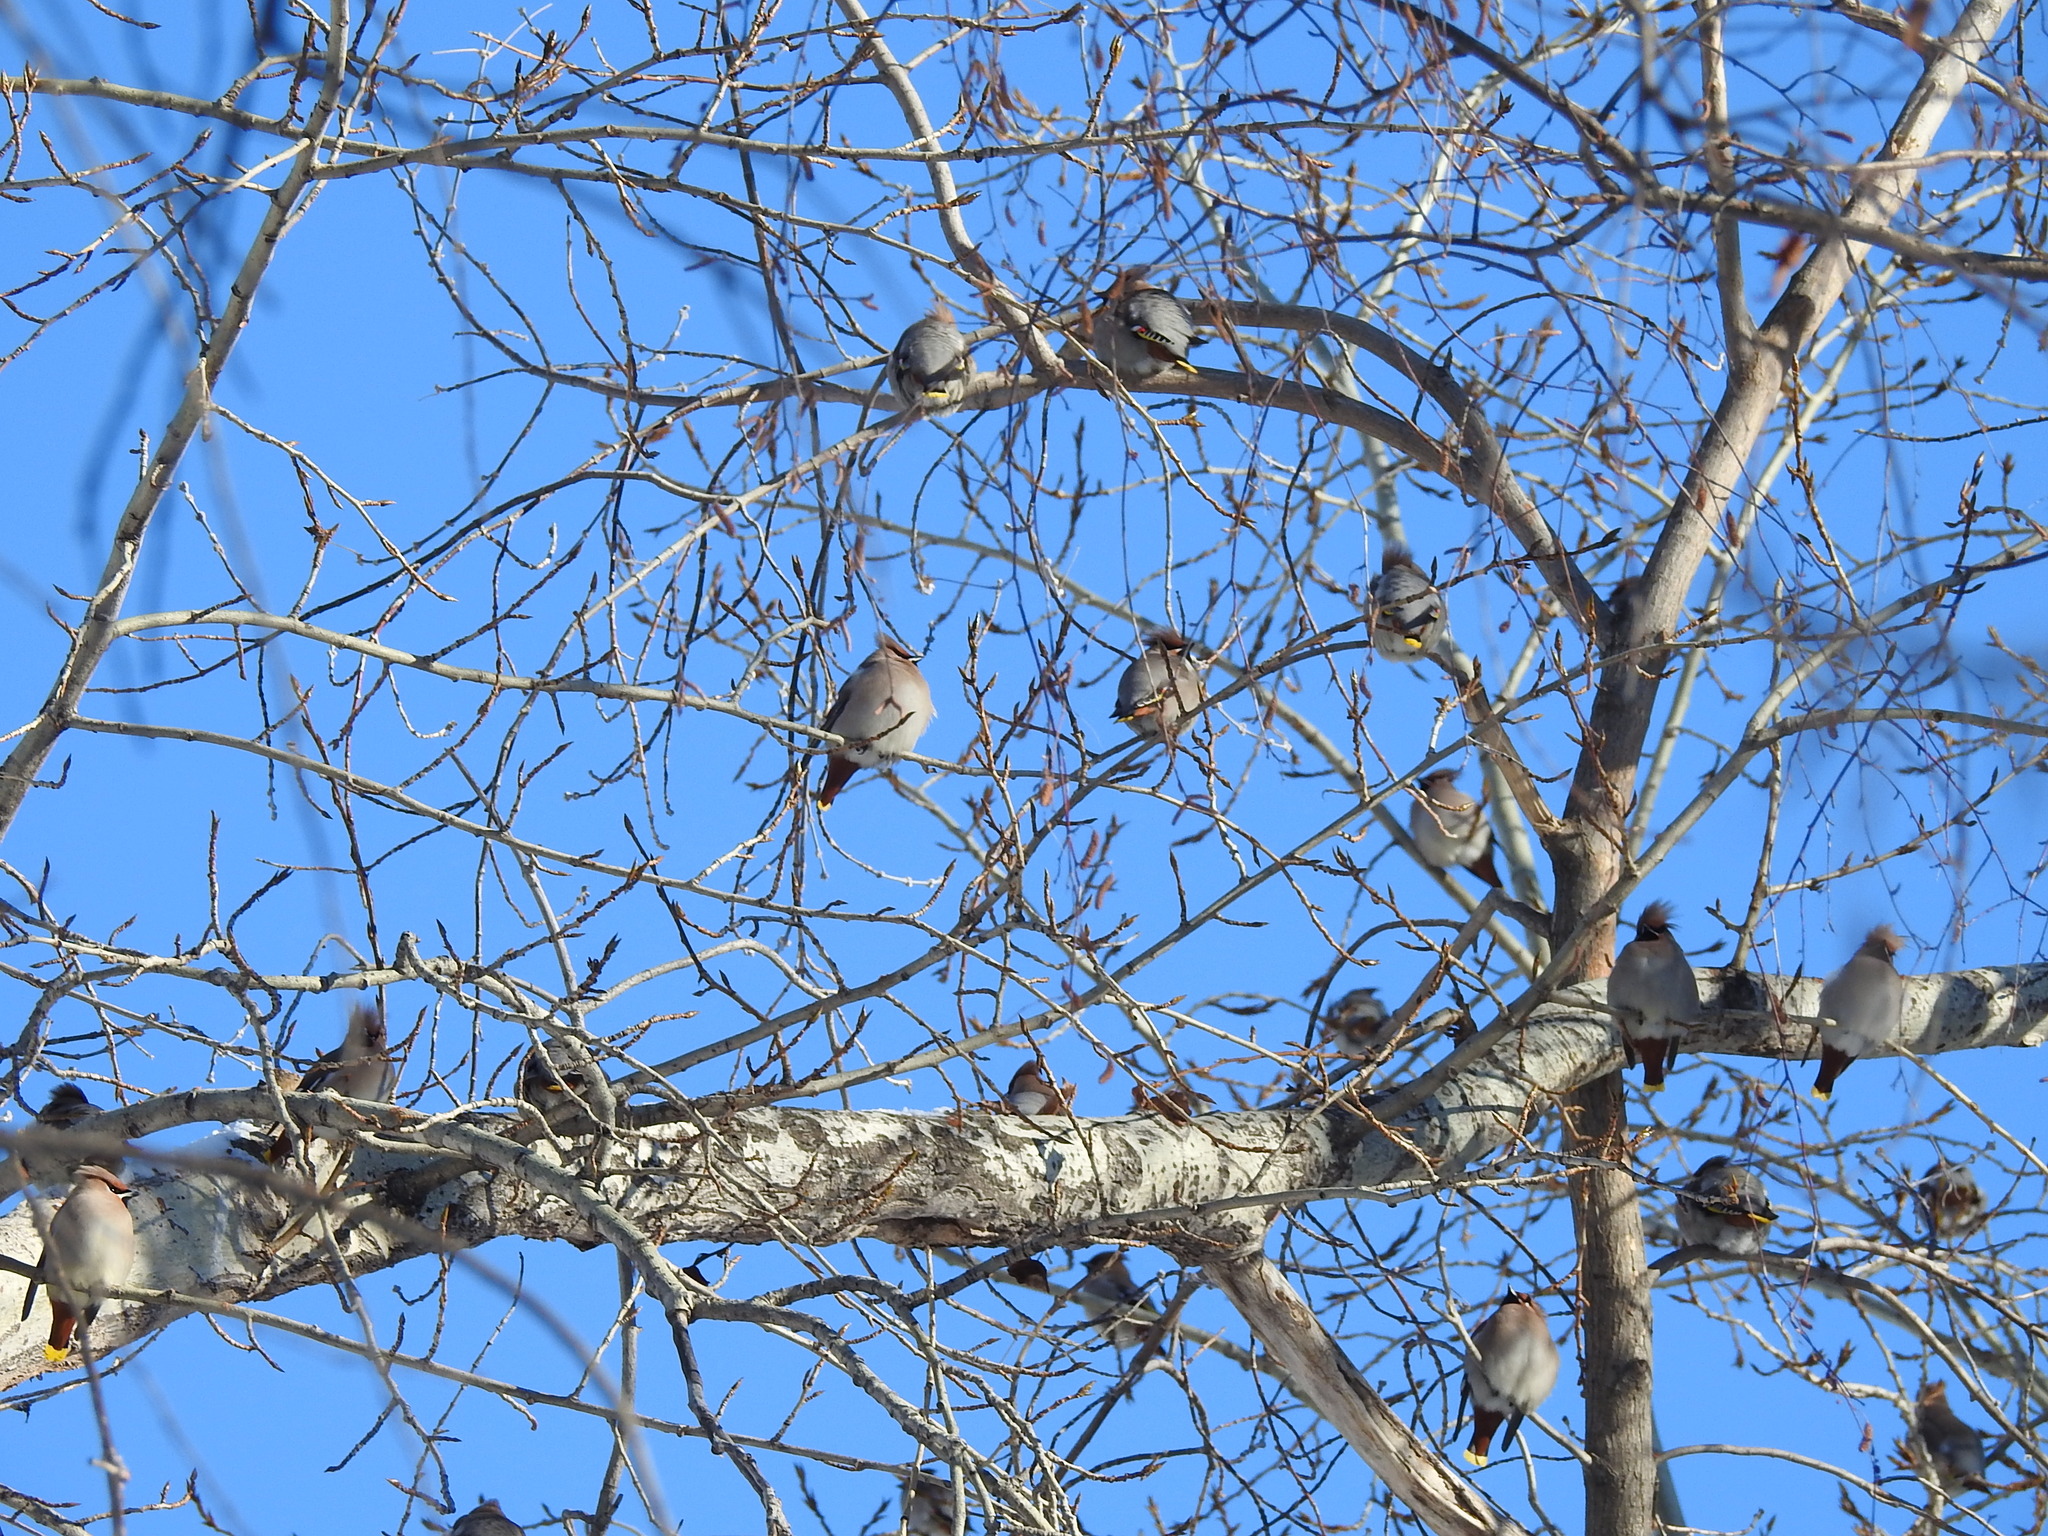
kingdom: Animalia
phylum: Chordata
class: Aves
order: Passeriformes
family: Bombycillidae
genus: Bombycilla
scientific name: Bombycilla garrulus
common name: Bohemian waxwing
